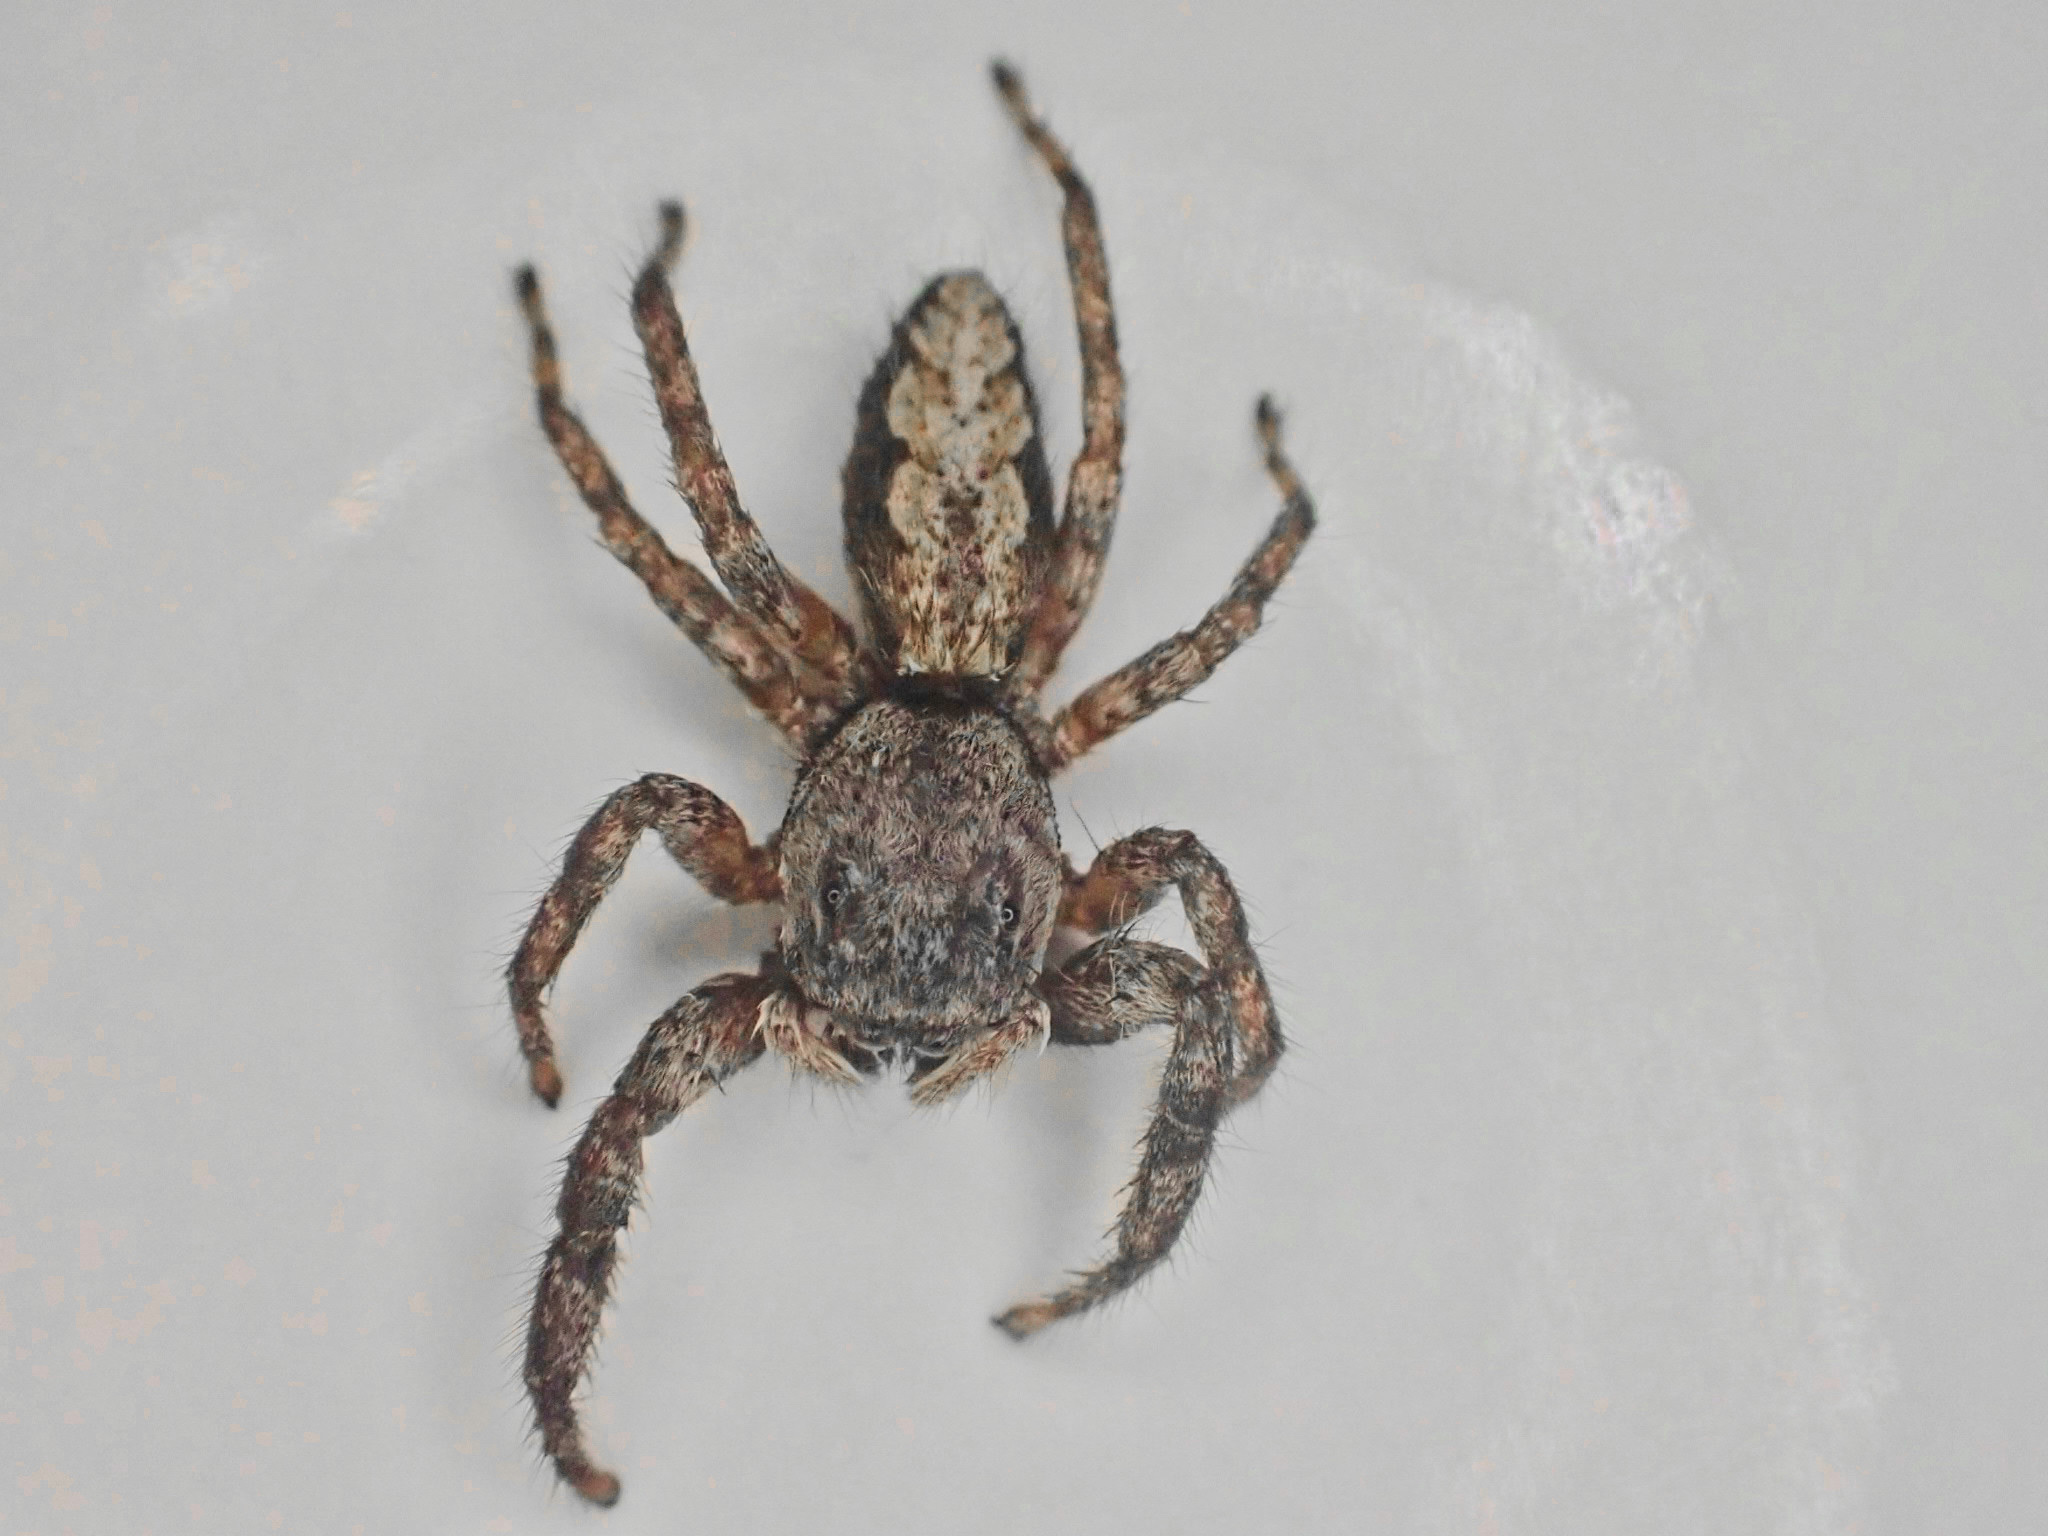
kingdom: Animalia
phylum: Arthropoda
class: Arachnida
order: Araneae
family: Salticidae
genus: Platycryptus
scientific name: Platycryptus undatus
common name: Tan jumping spider
